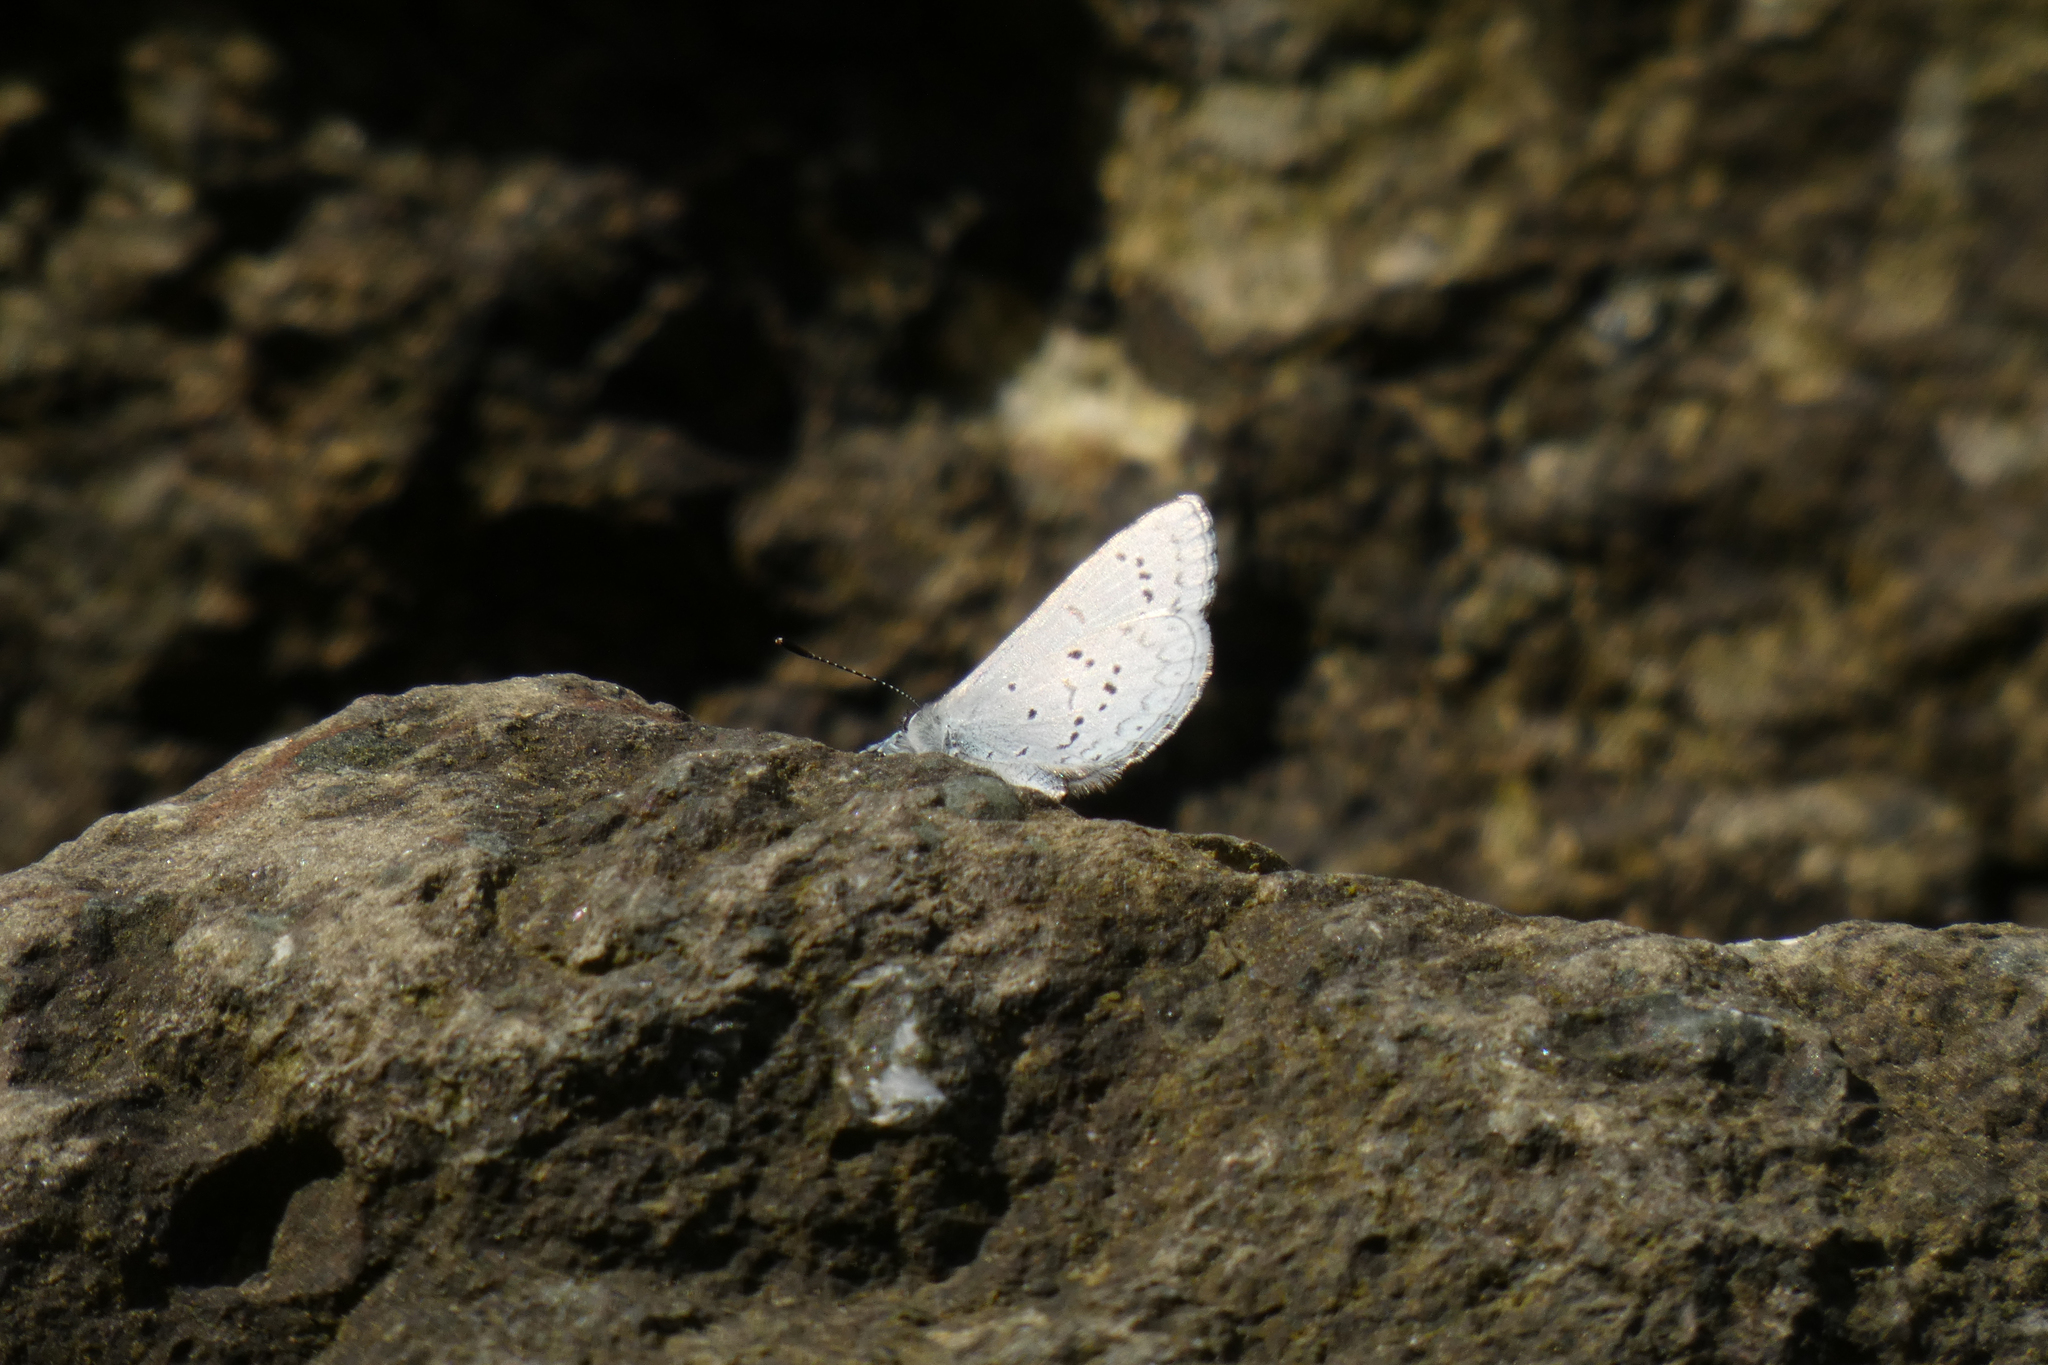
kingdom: Animalia
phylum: Arthropoda
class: Insecta
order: Lepidoptera
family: Lycaenidae
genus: Celastrina
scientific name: Celastrina ladon
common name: Spring azure
